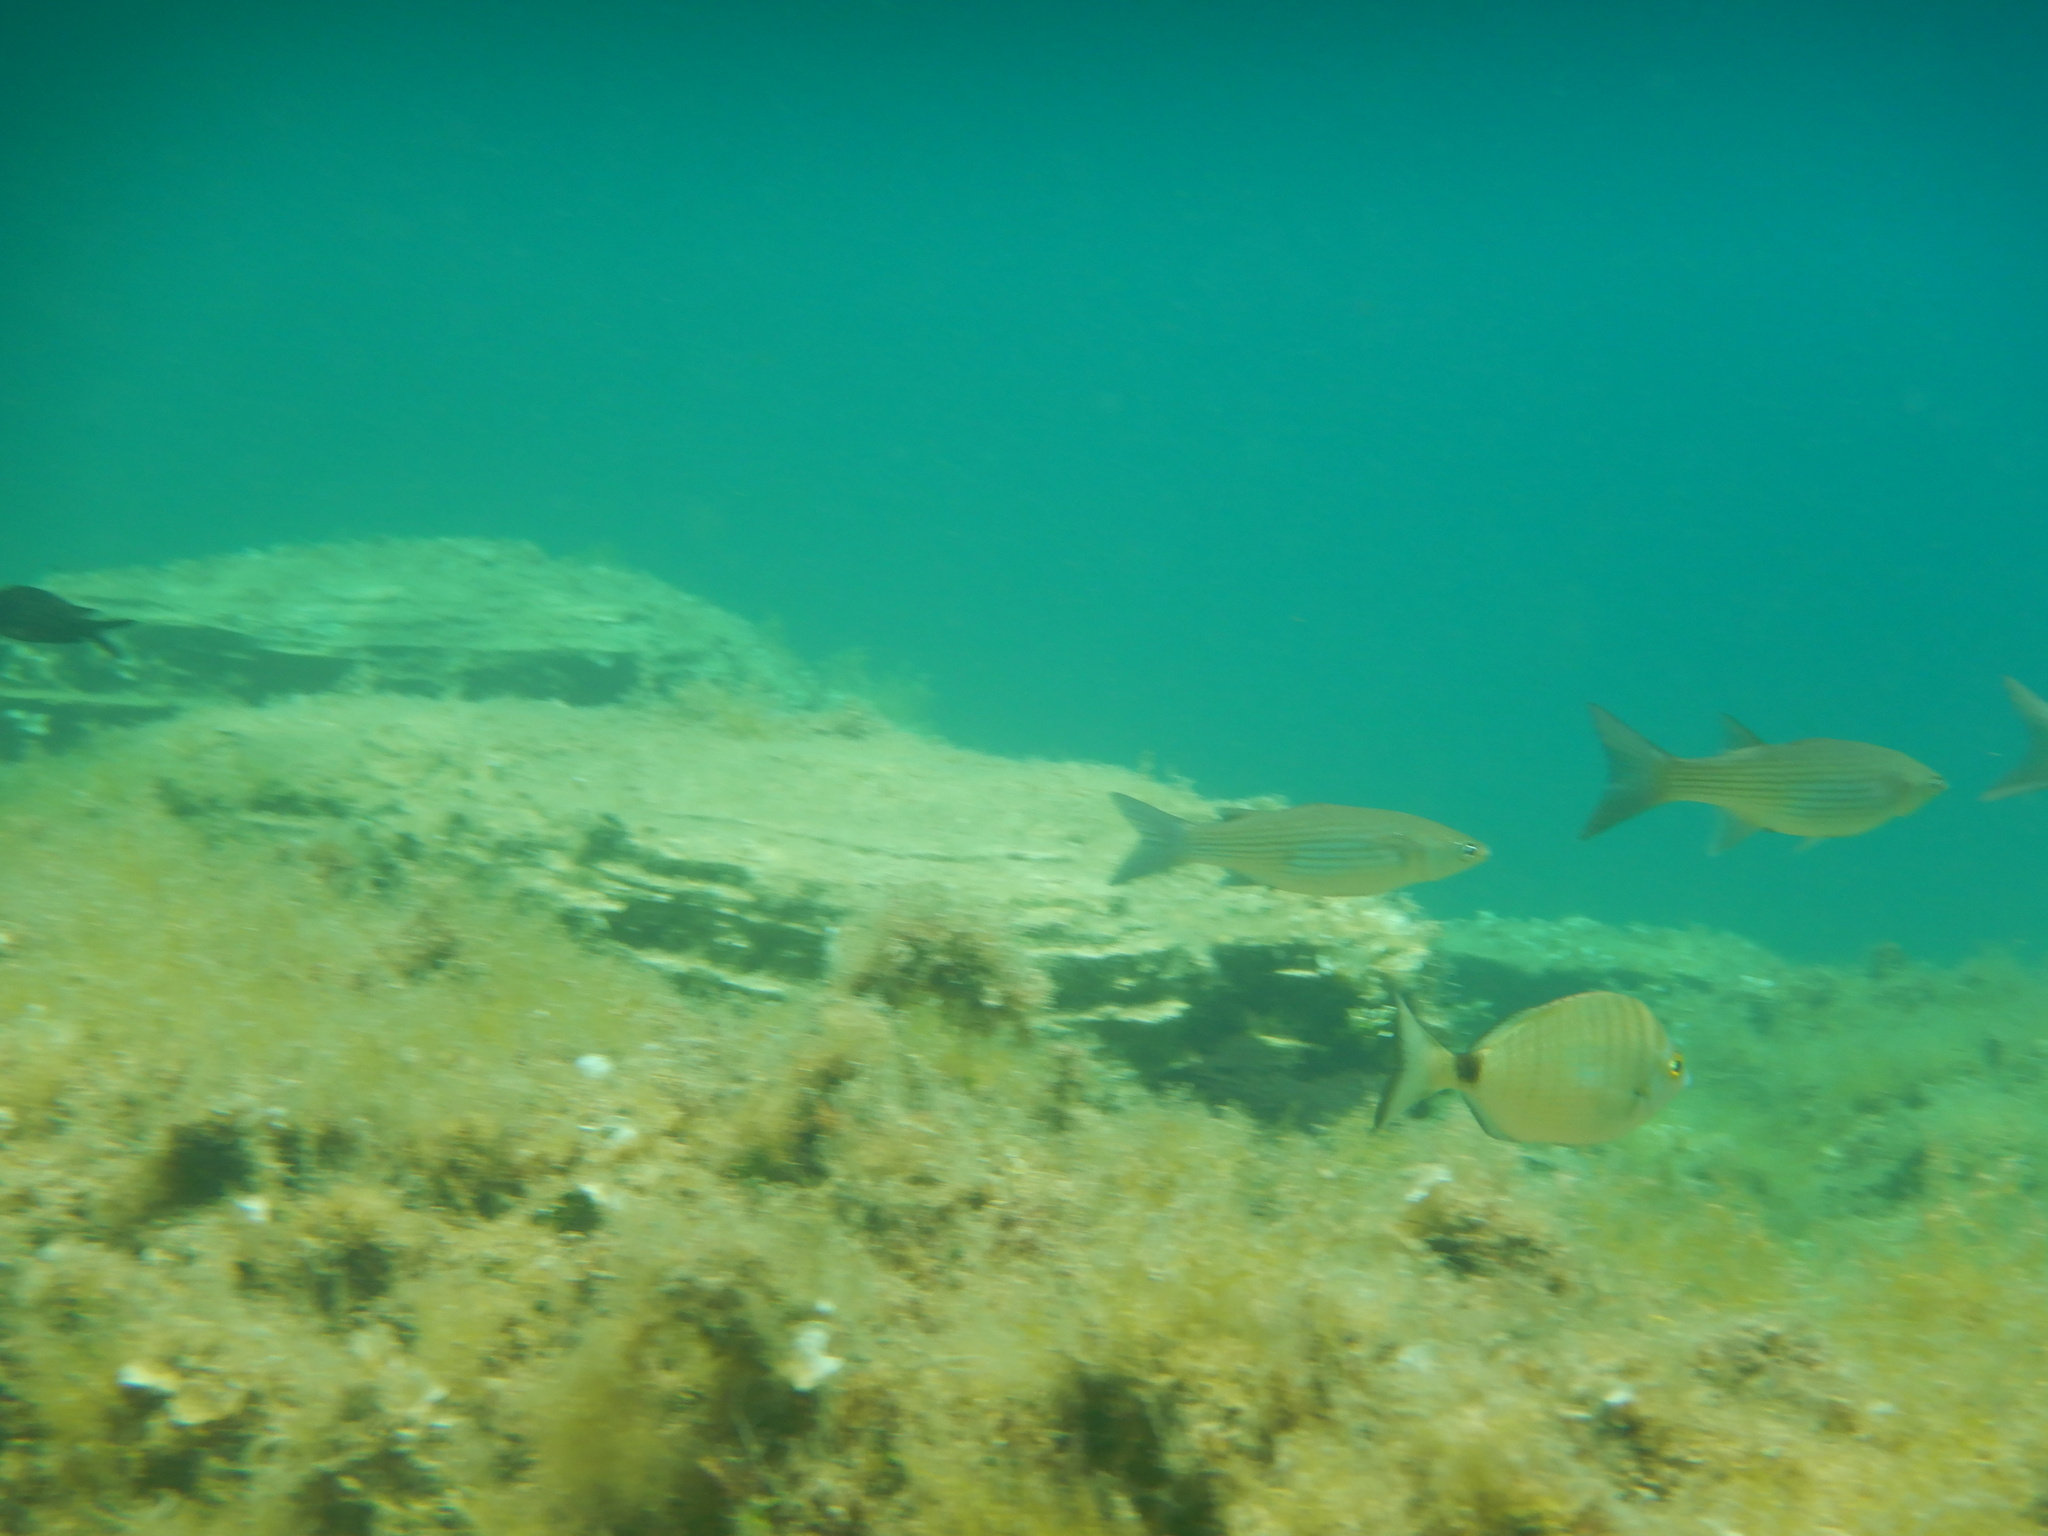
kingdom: Animalia
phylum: Chordata
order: Perciformes
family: Sparidae
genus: Diplodus
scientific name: Diplodus puntazzo
